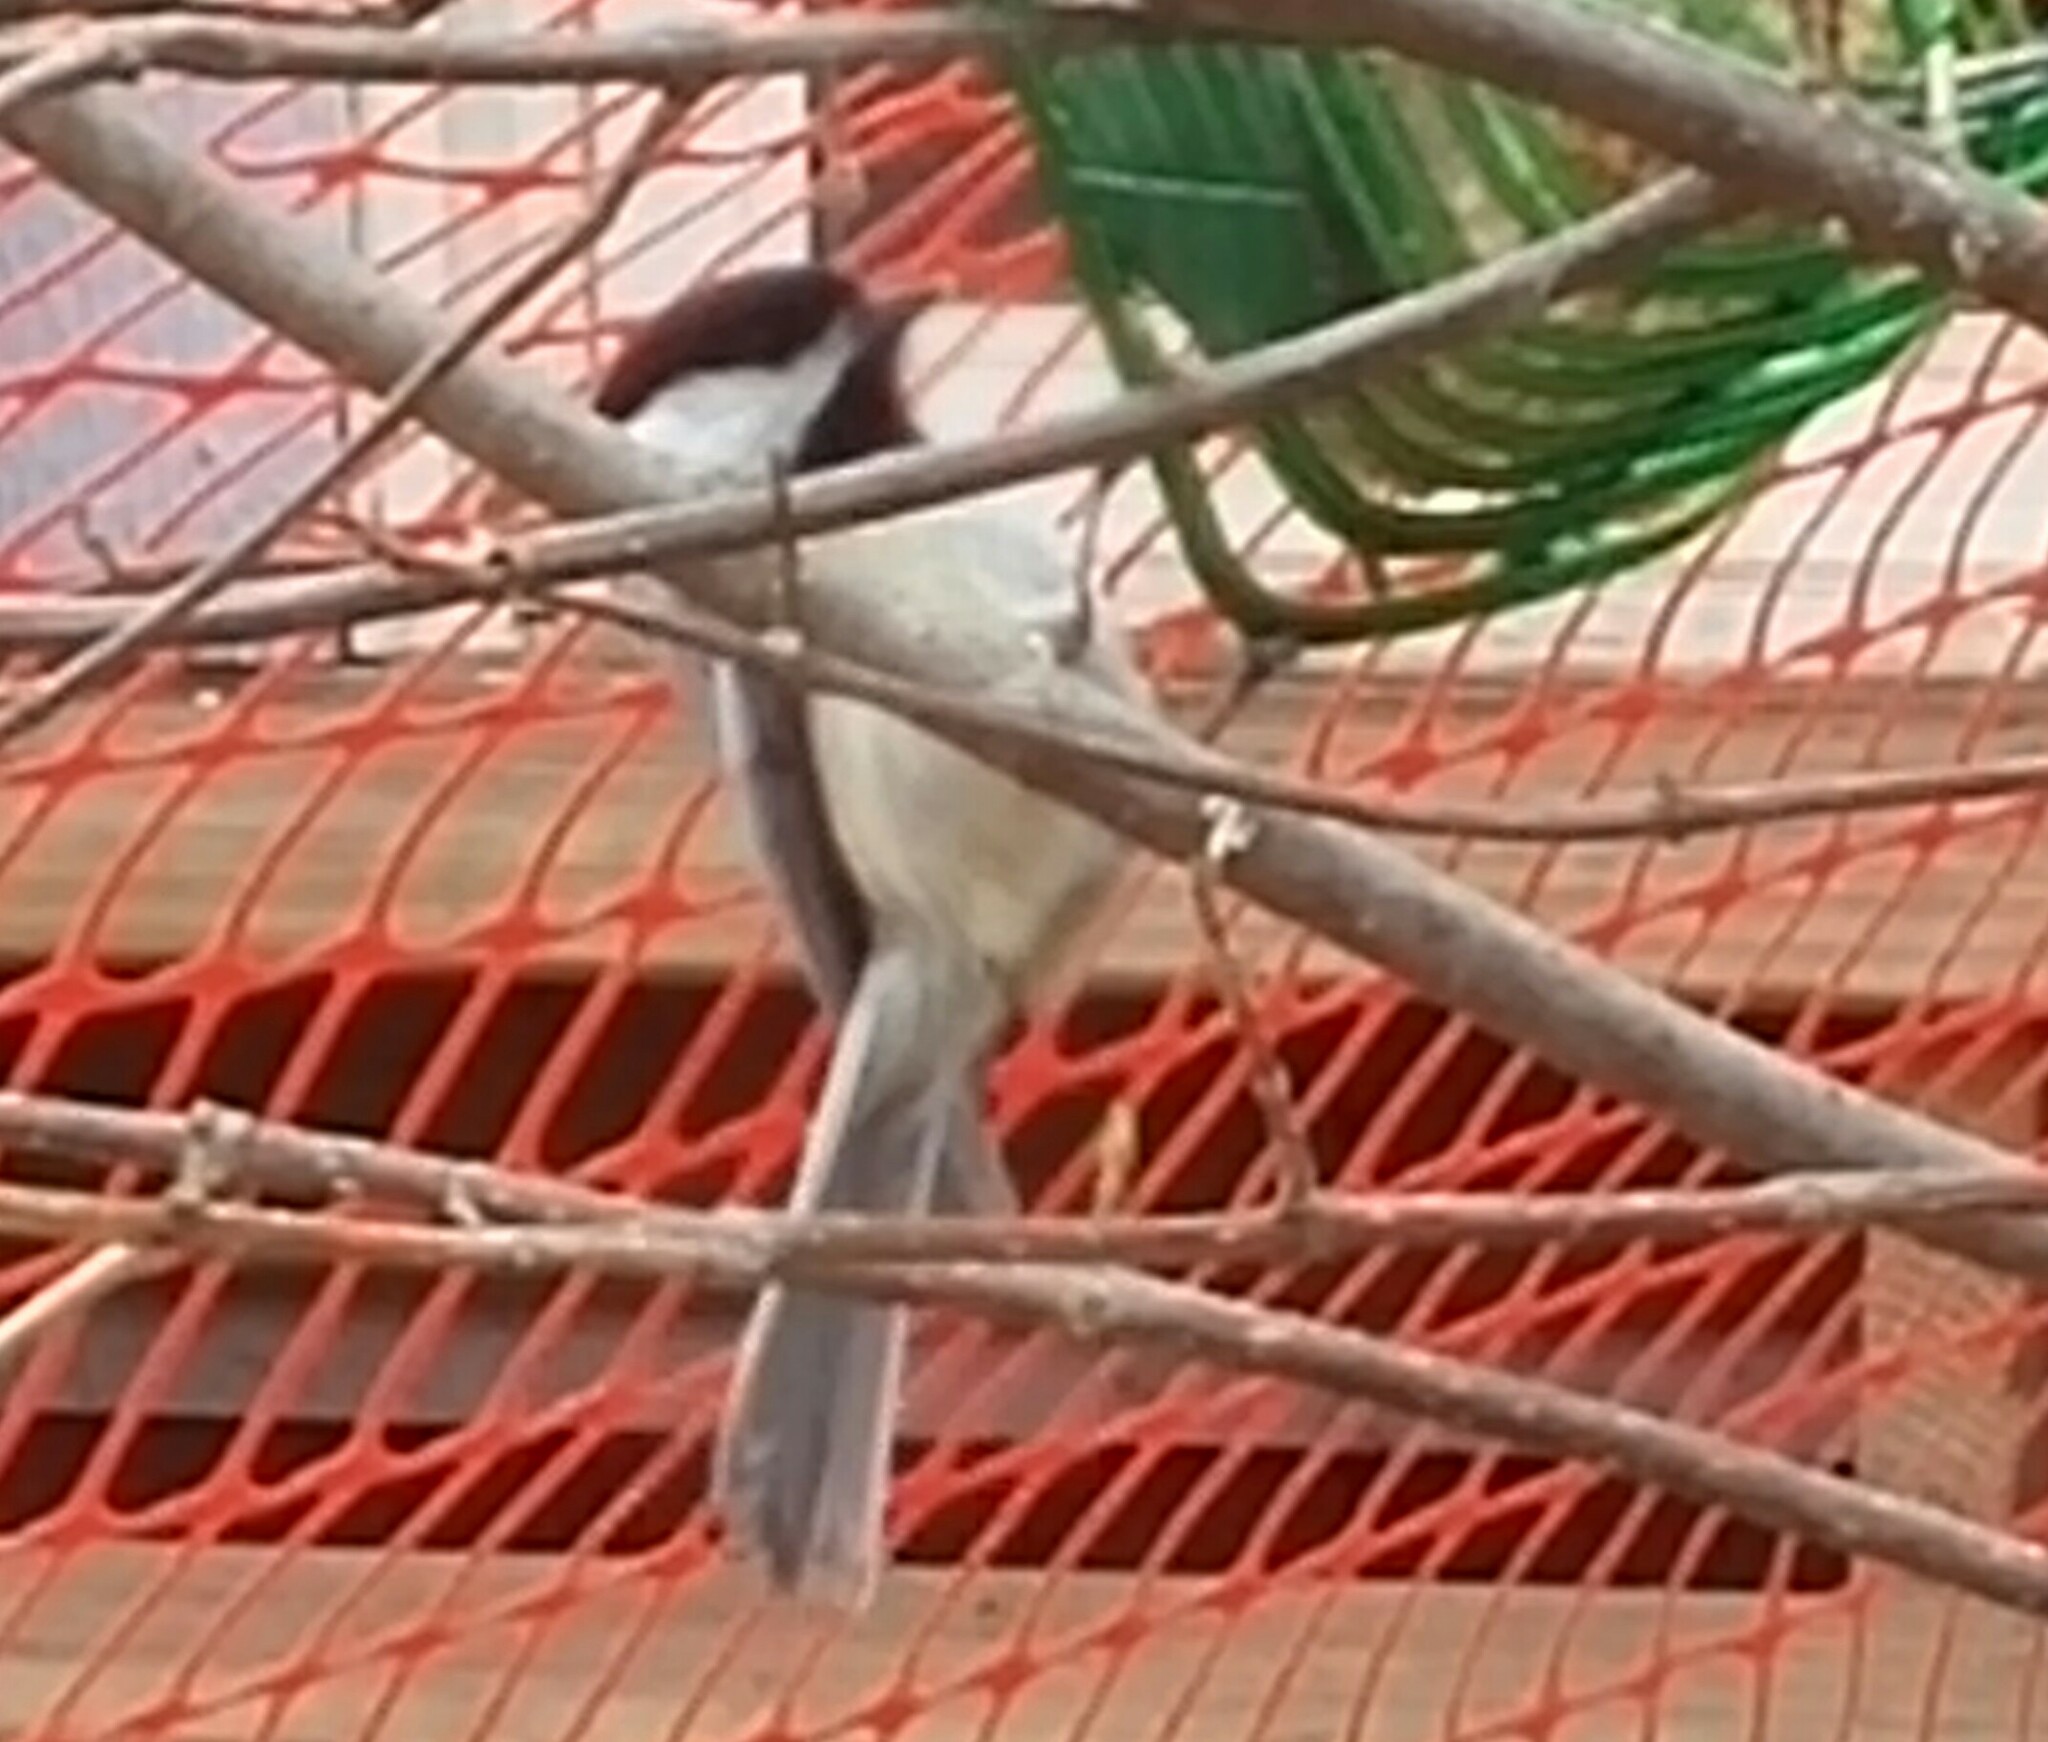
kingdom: Animalia
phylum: Chordata
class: Aves
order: Passeriformes
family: Paridae
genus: Poecile
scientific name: Poecile atricapillus
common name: Black-capped chickadee
